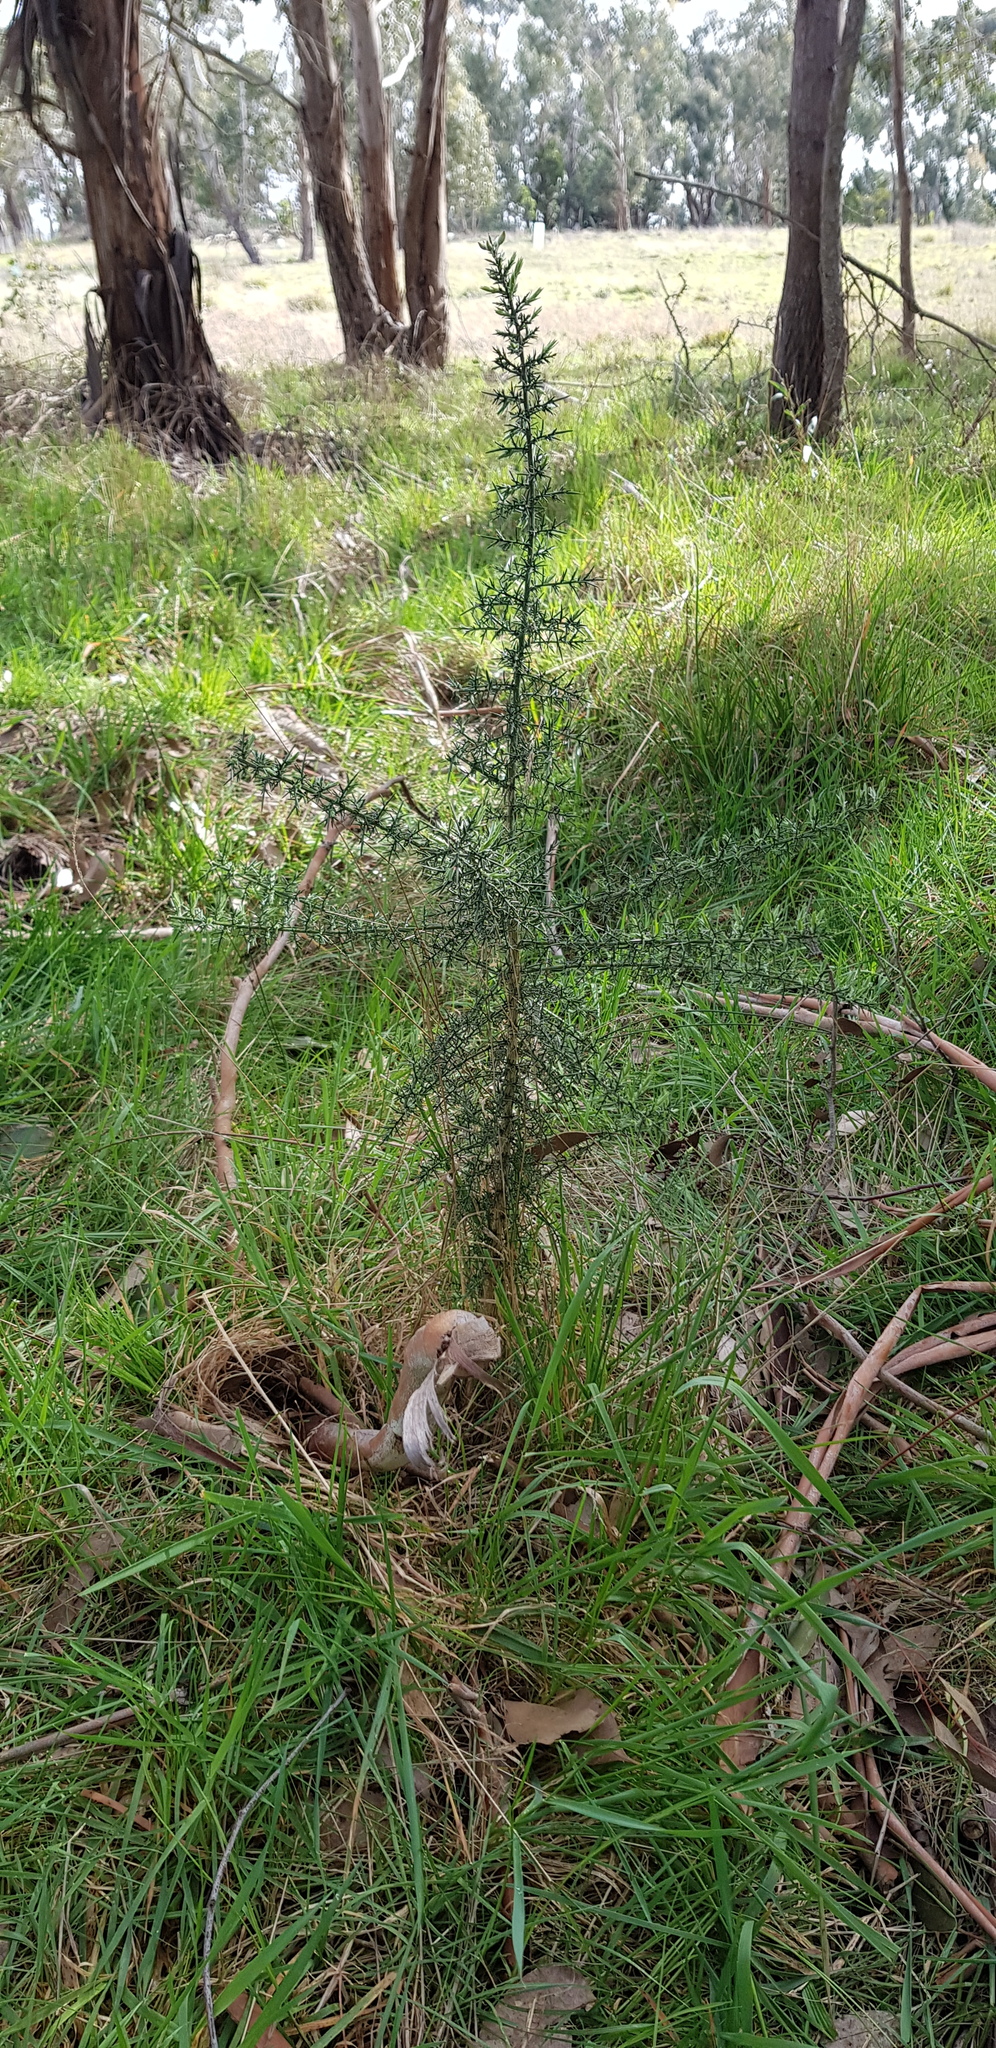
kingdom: Plantae
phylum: Tracheophyta
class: Magnoliopsida
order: Fabales
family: Fabaceae
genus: Ulex
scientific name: Ulex europaeus
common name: Common gorse
